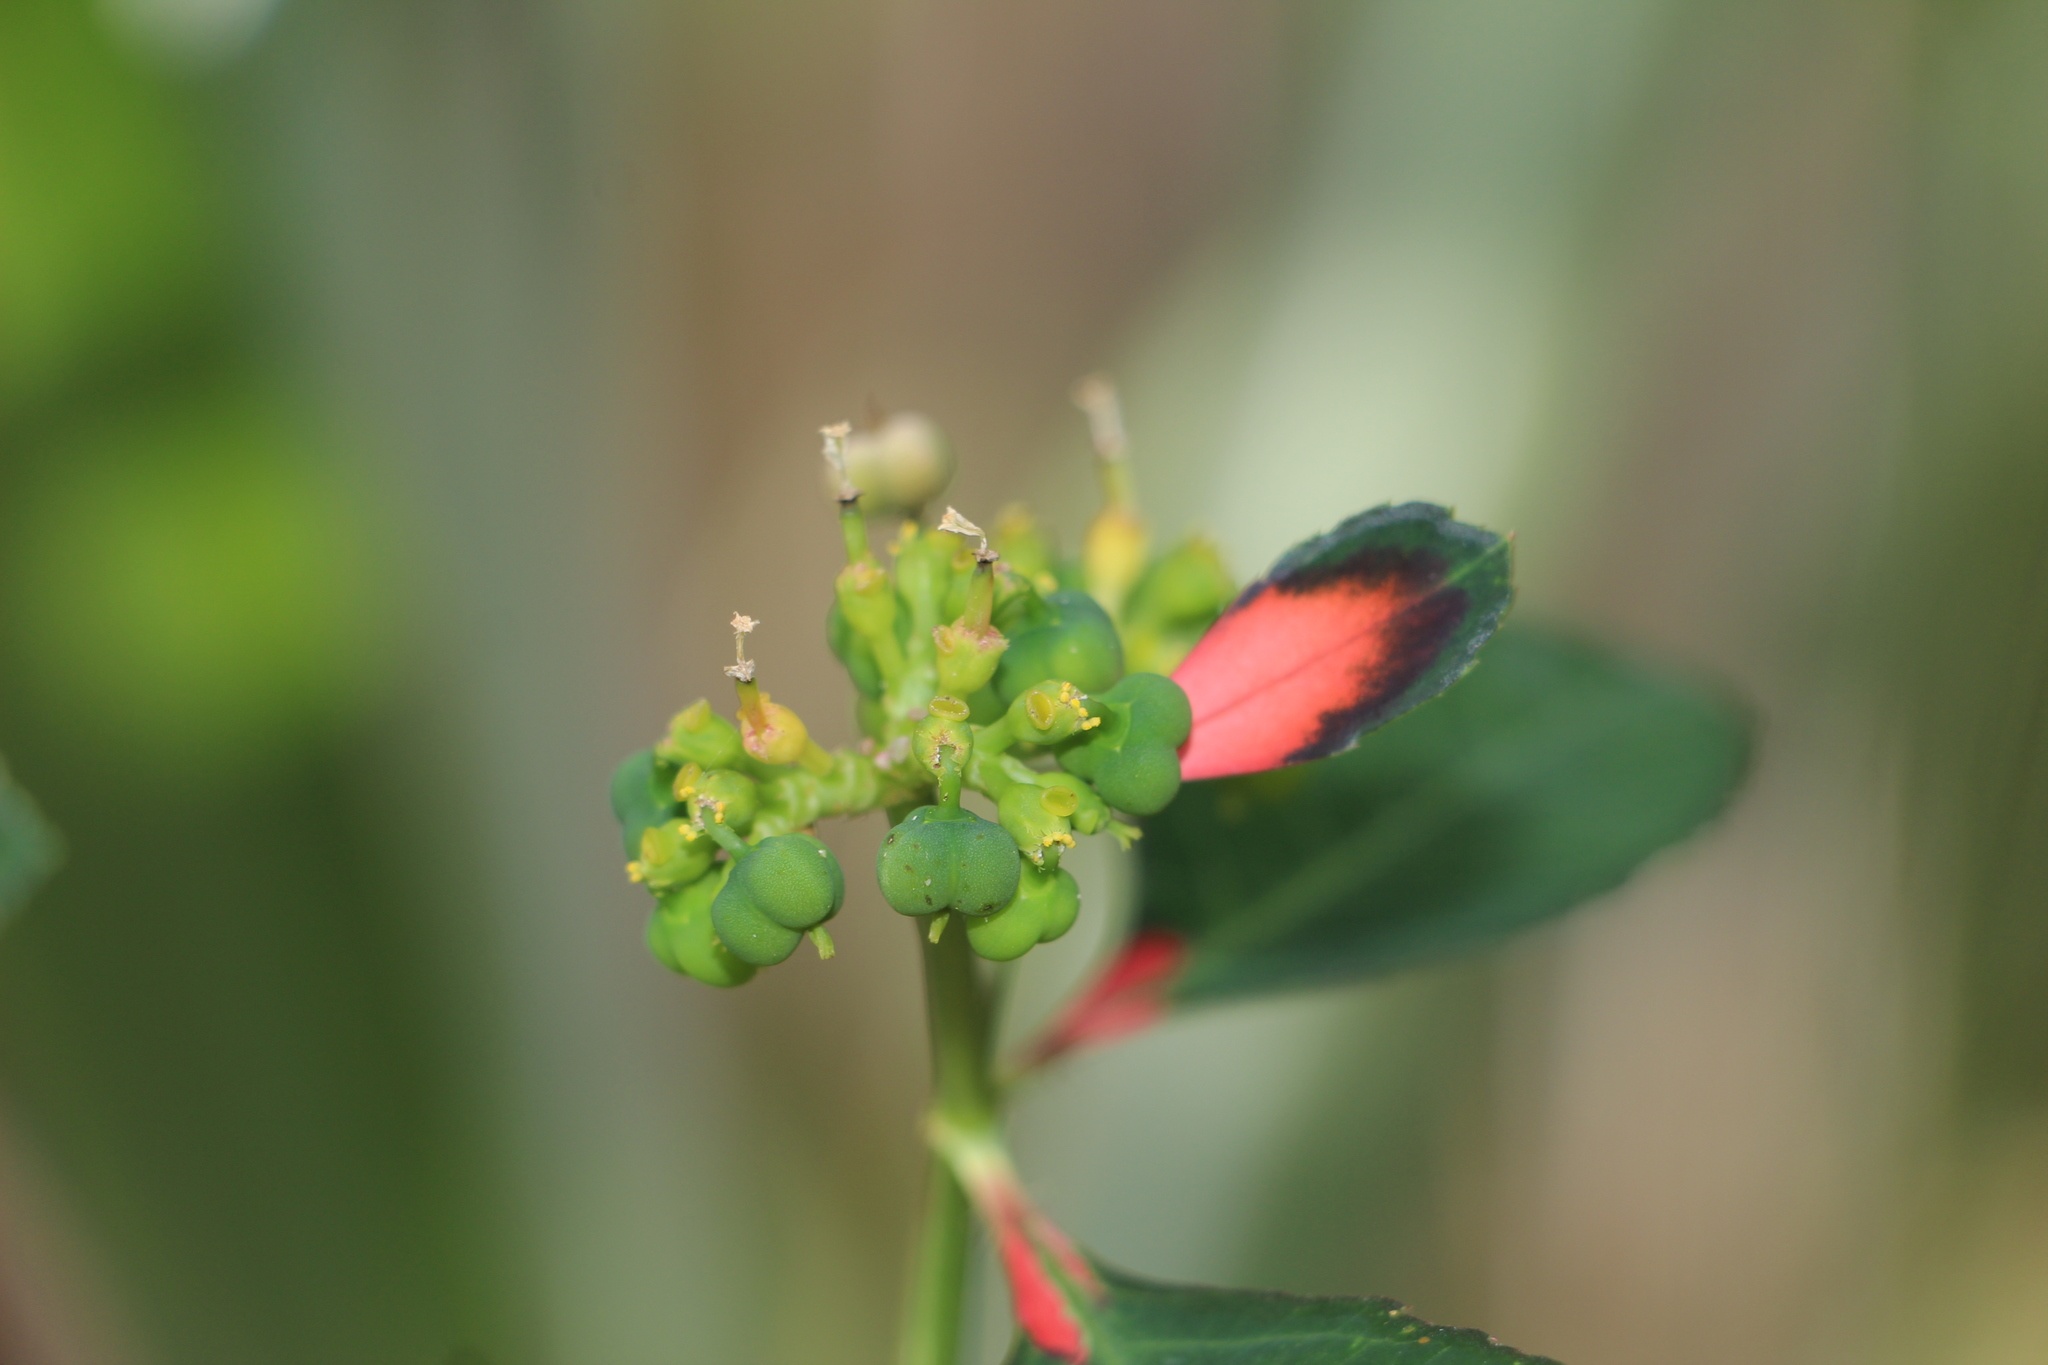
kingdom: Plantae
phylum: Tracheophyta
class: Magnoliopsida
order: Malpighiales
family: Euphorbiaceae
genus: Euphorbia
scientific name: Euphorbia heterophylla
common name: Mexican fireplant
